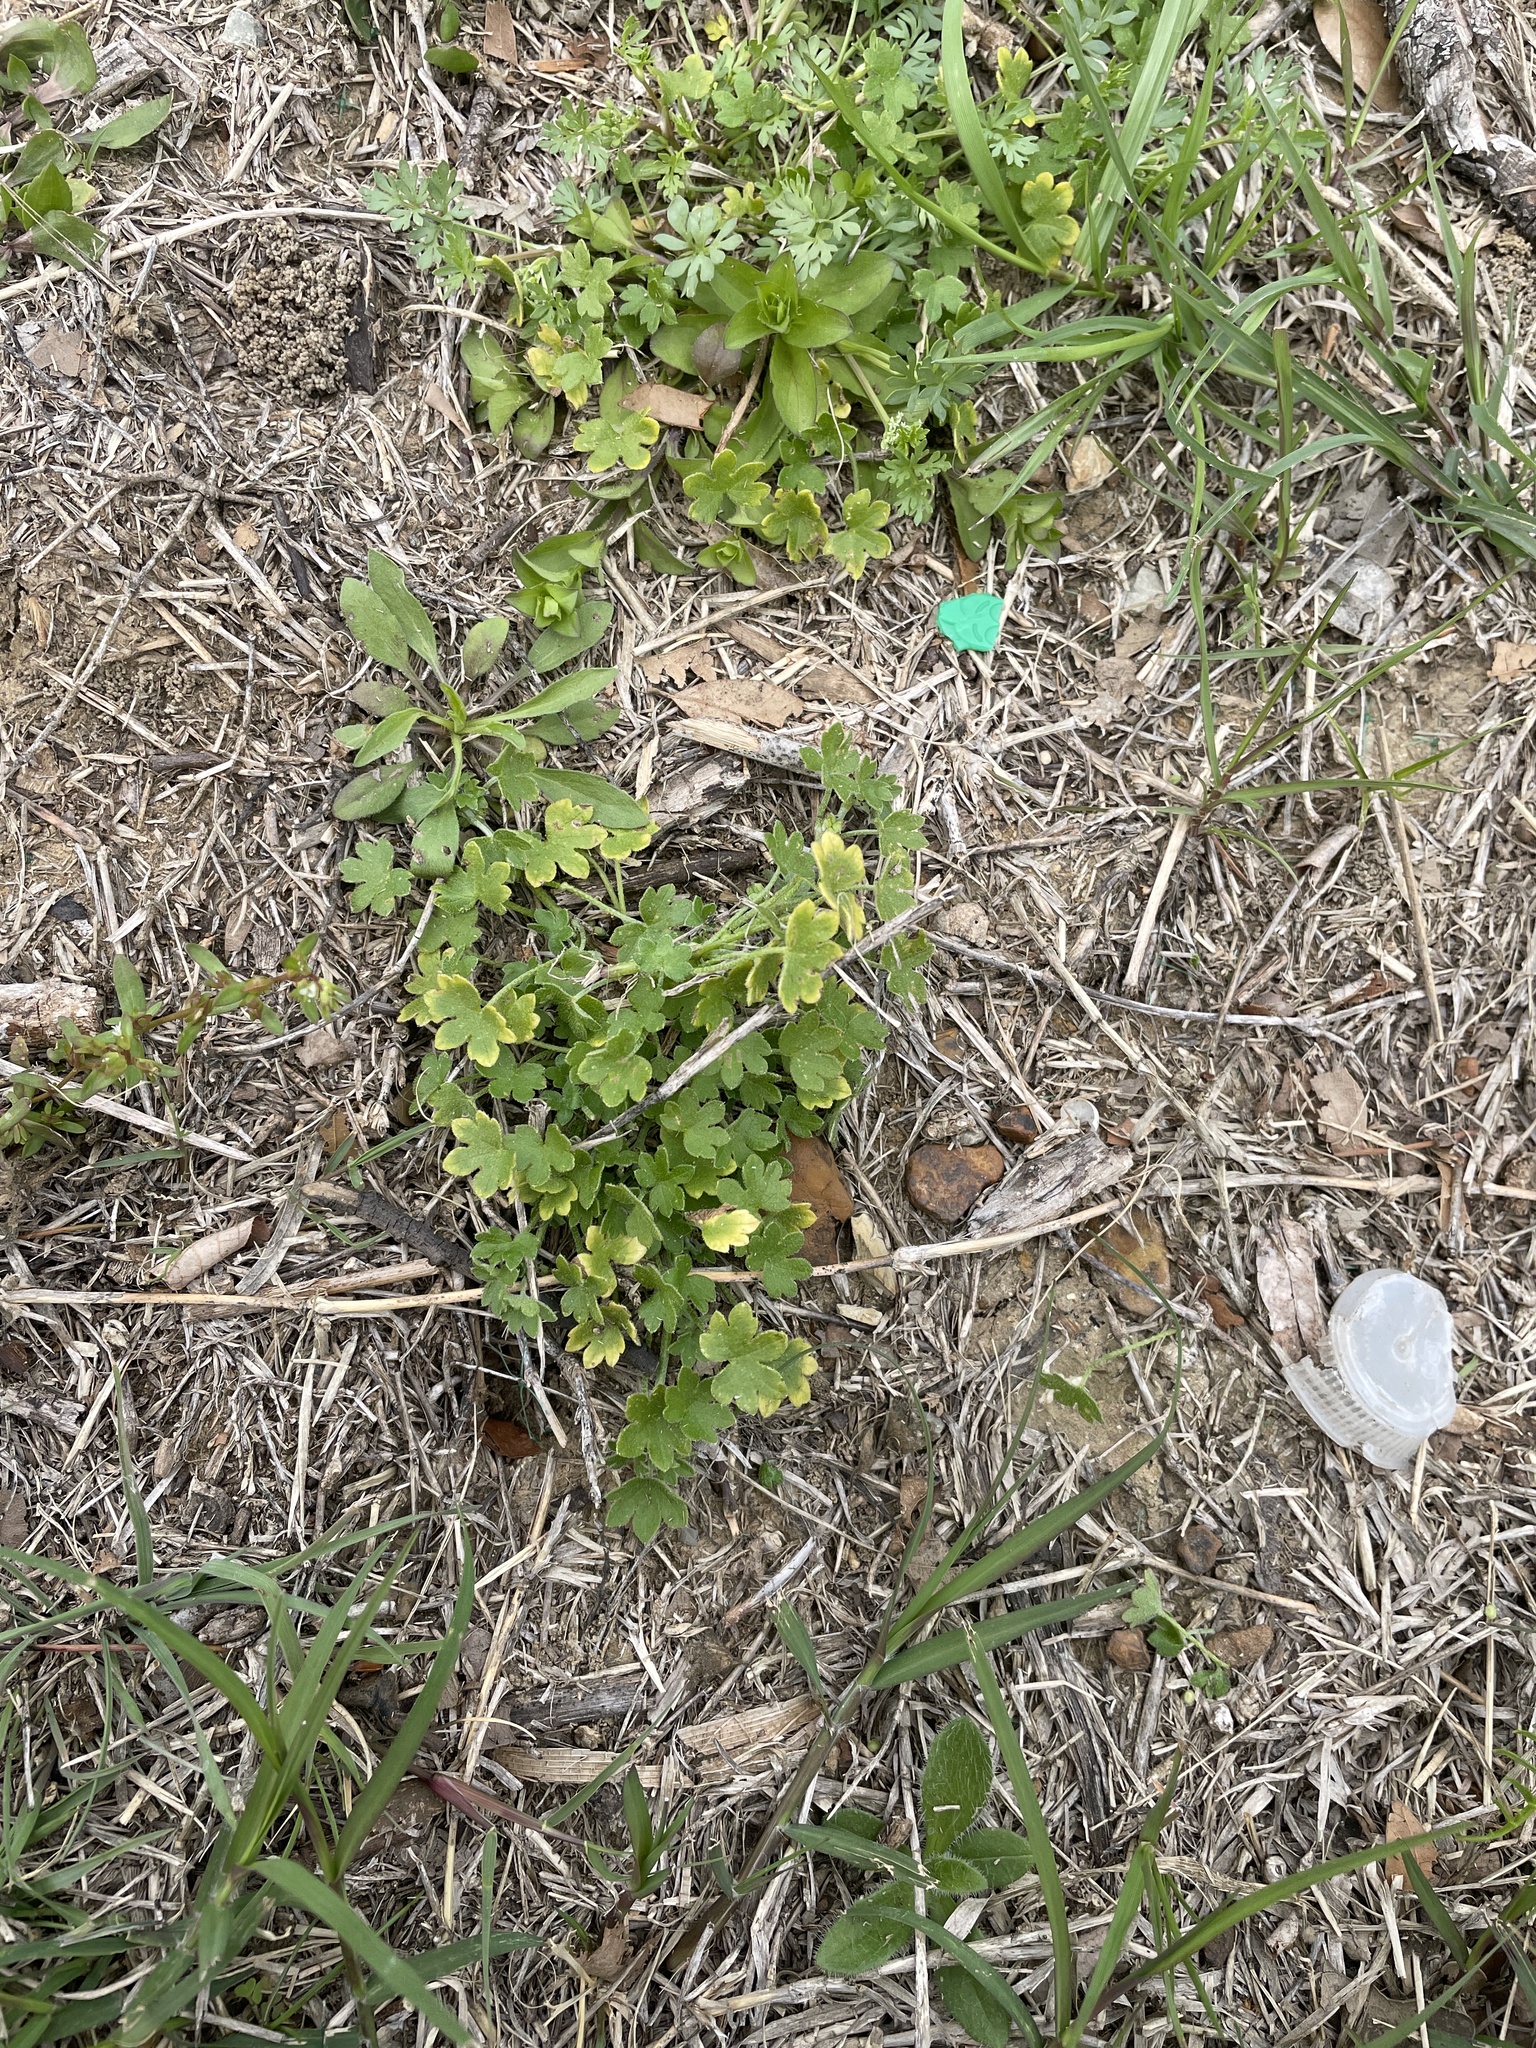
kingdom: Plantae
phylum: Tracheophyta
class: Magnoliopsida
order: Apiales
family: Apiaceae
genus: Bowlesia
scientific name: Bowlesia incana
